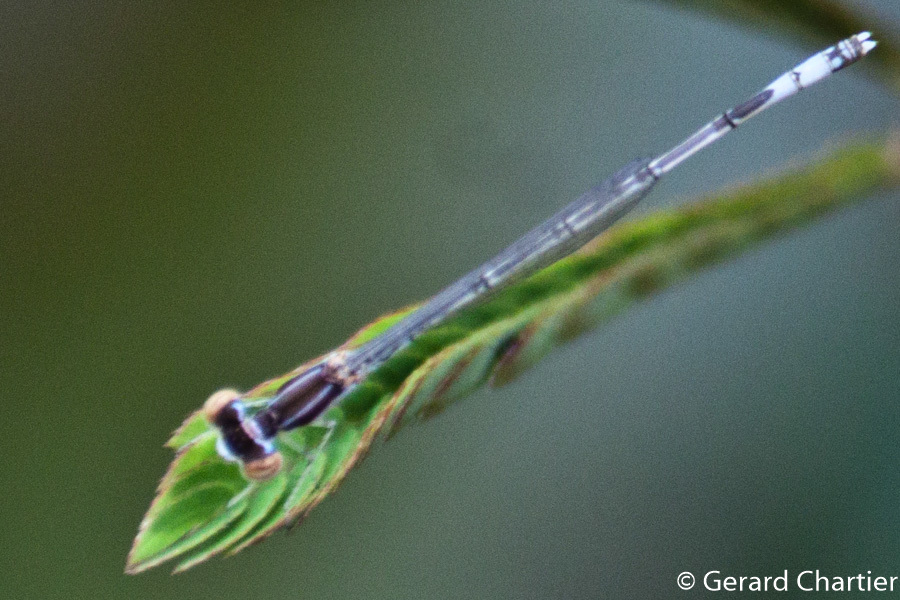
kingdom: Animalia
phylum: Arthropoda
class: Insecta
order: Odonata
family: Coenagrionidae
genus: Agriocnemis
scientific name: Agriocnemis nana
